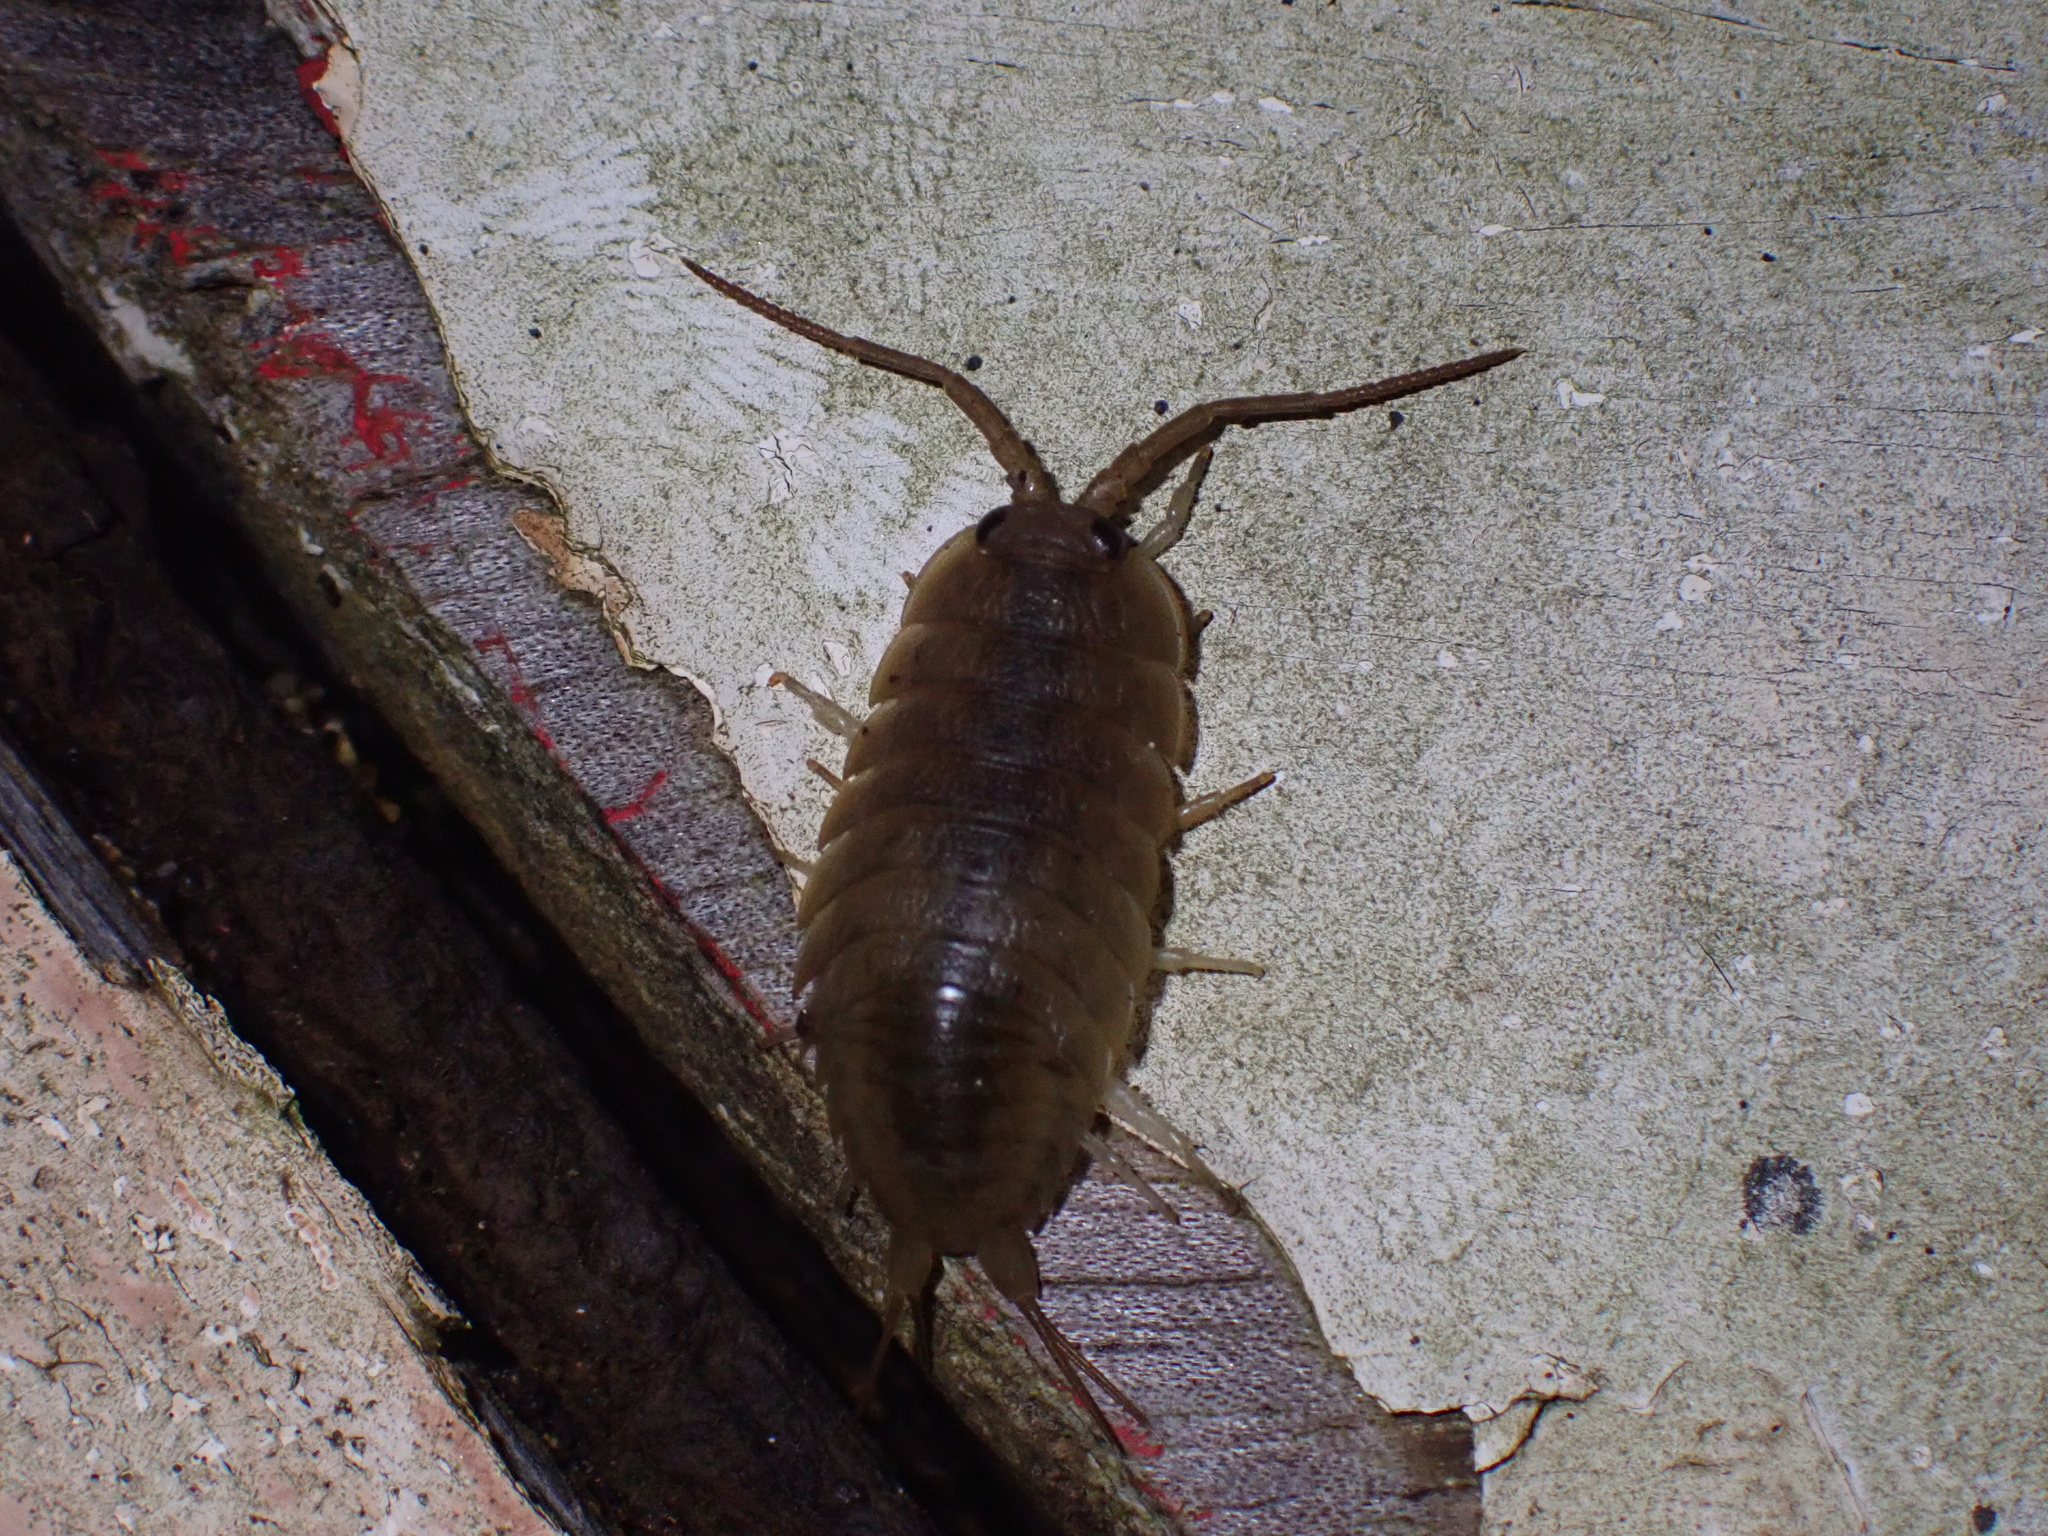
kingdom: Animalia
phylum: Arthropoda
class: Malacostraca
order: Isopoda
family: Ligiidae
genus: Ligia
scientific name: Ligia oceanica
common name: Sea slater
